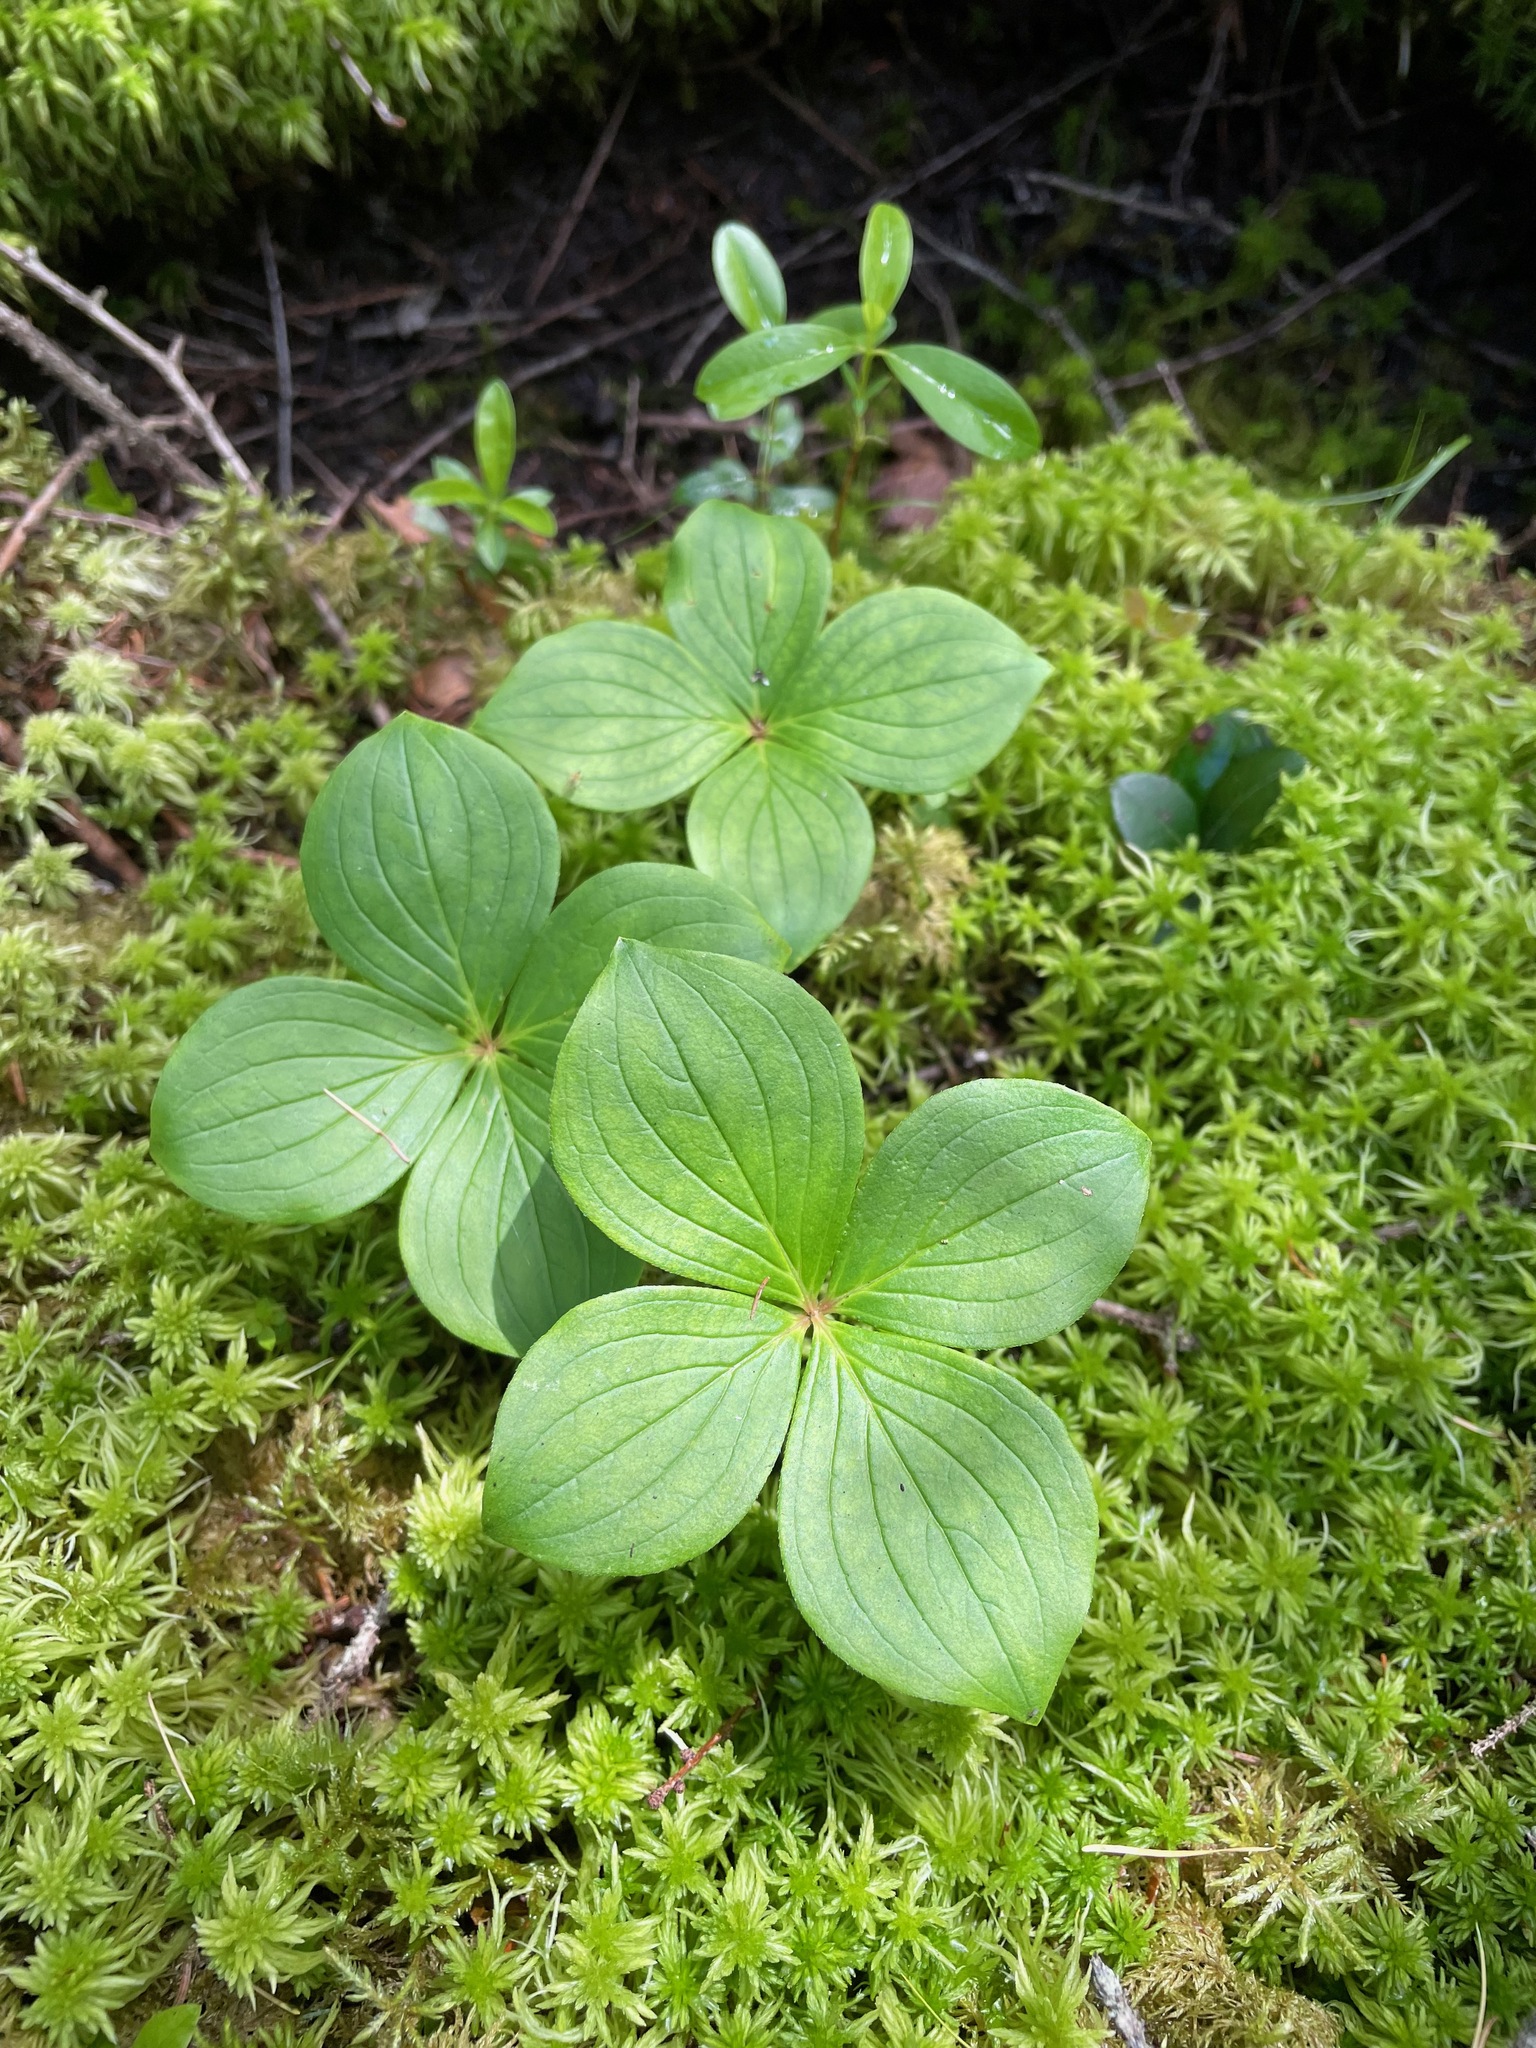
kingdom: Plantae
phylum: Tracheophyta
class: Magnoliopsida
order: Cornales
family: Cornaceae
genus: Cornus
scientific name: Cornus canadensis
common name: Creeping dogwood
